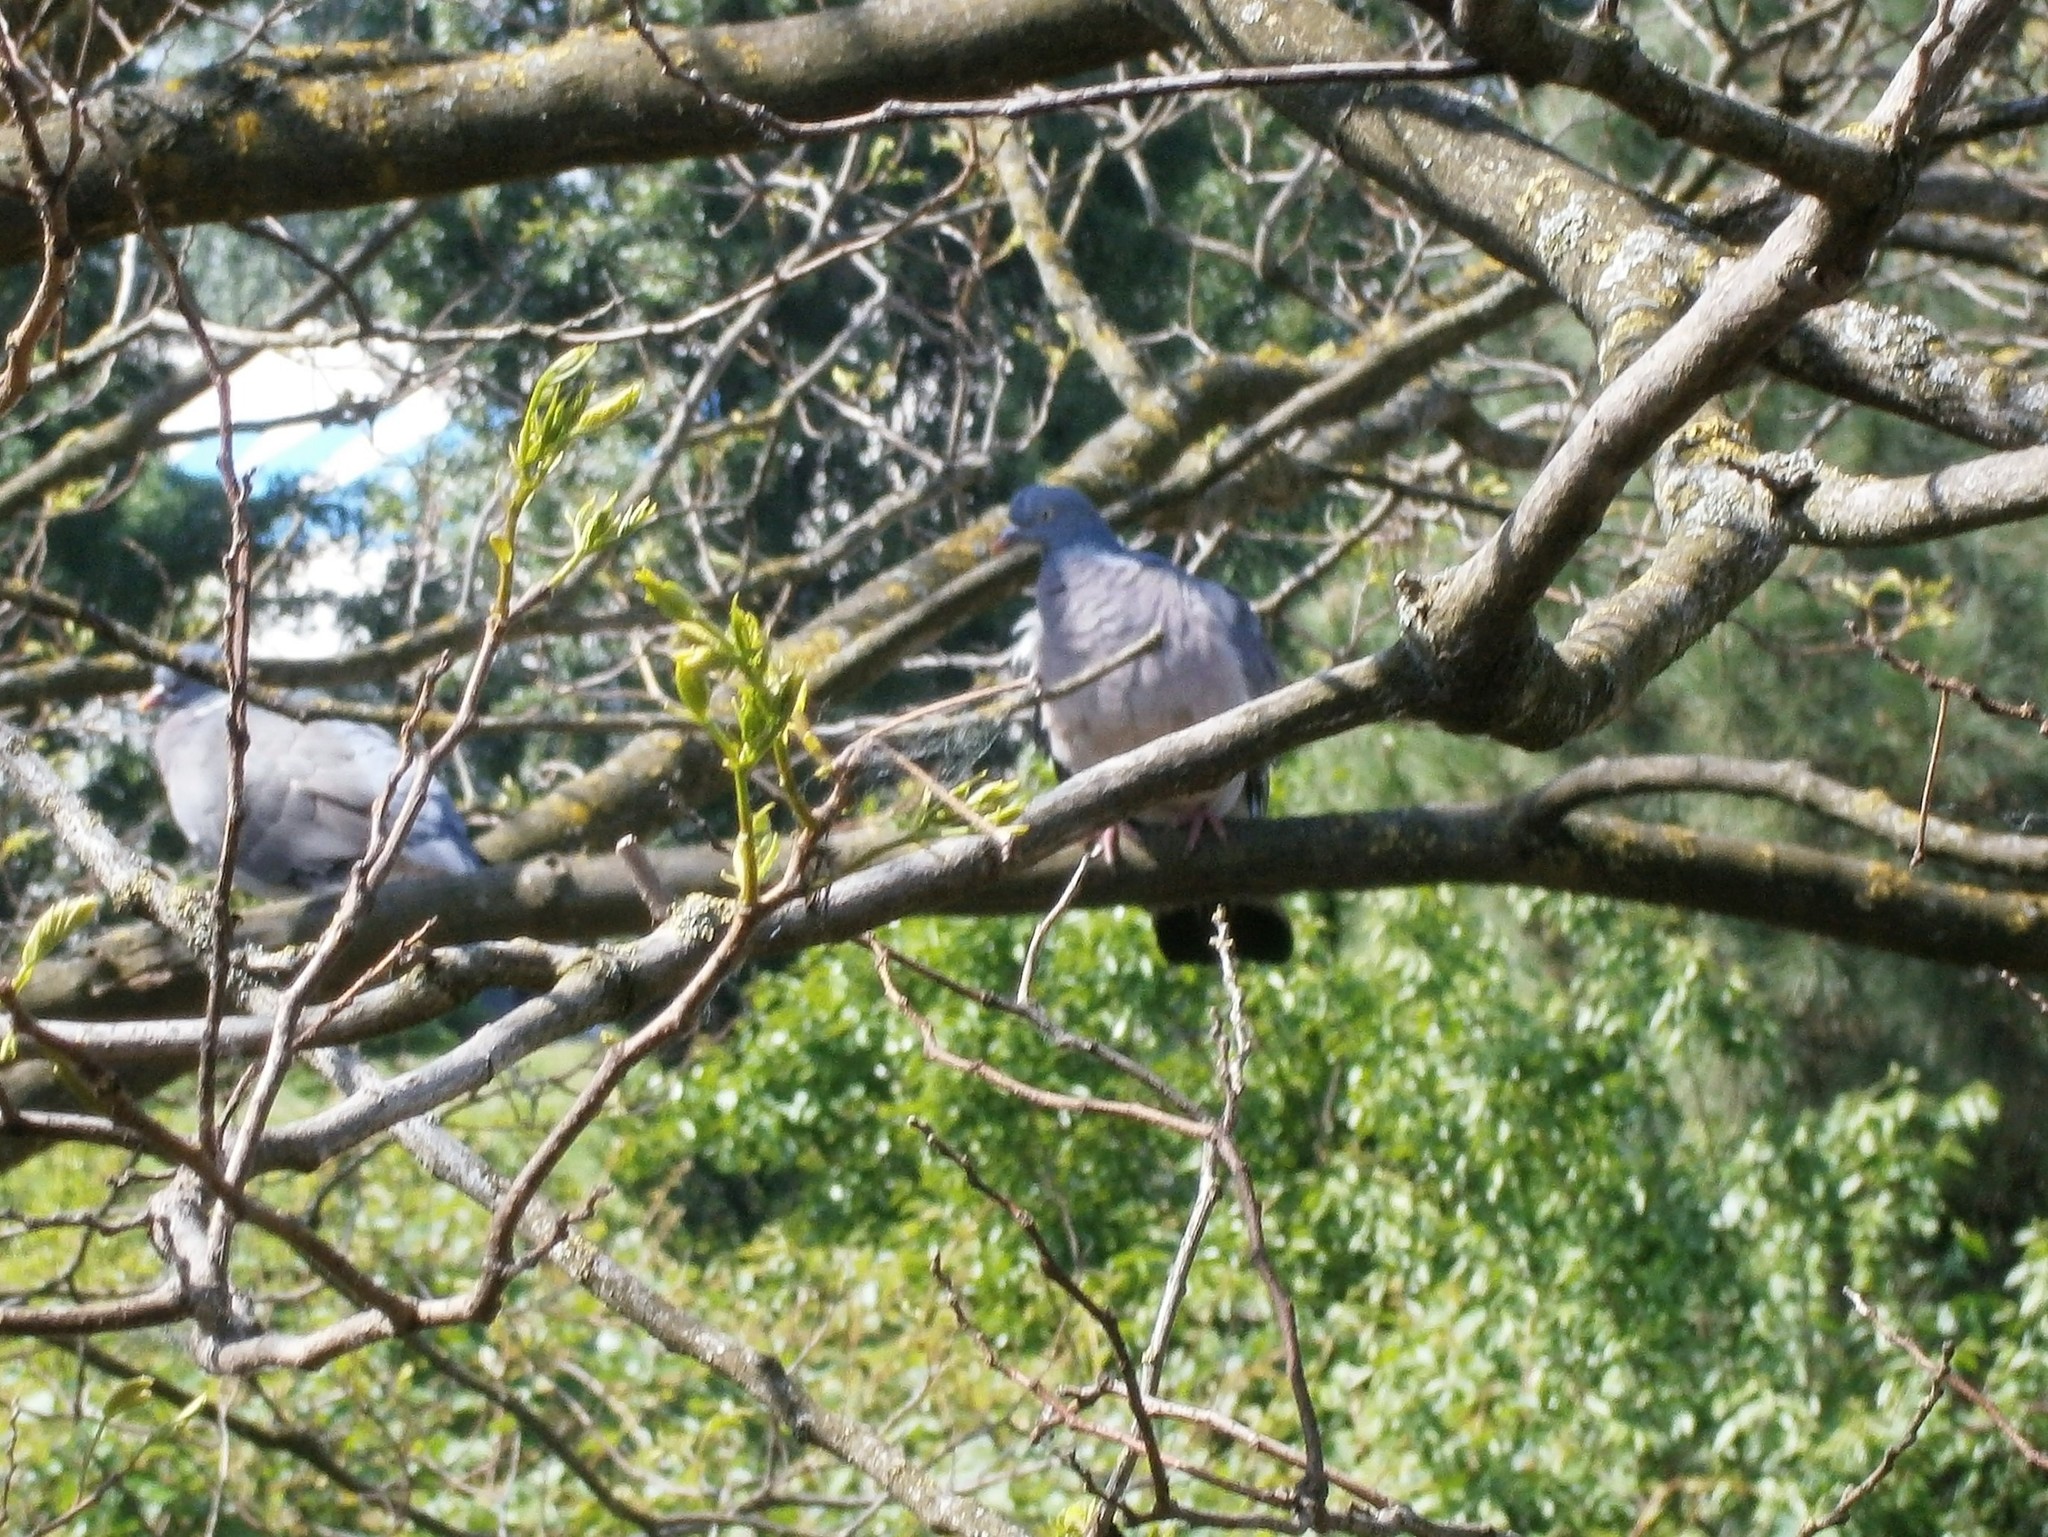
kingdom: Animalia
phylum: Chordata
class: Aves
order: Columbiformes
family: Columbidae
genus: Columba
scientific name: Columba palumbus
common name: Common wood pigeon
